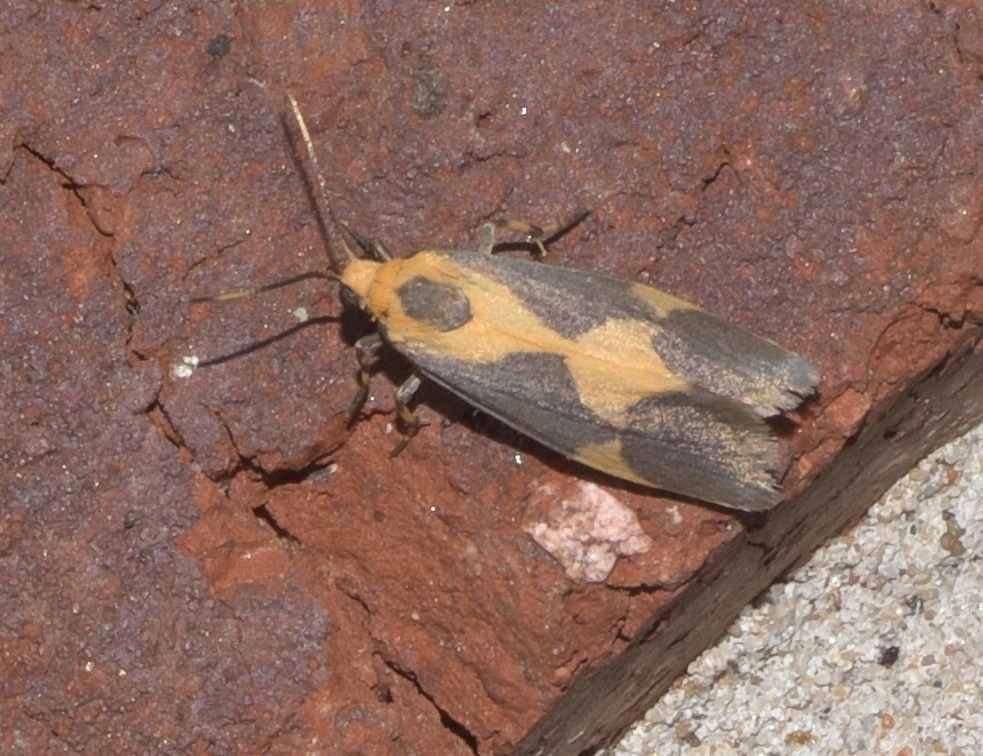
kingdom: Animalia
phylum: Arthropoda
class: Insecta
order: Lepidoptera
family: Erebidae
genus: Cisthene
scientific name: Cisthene unifascia
